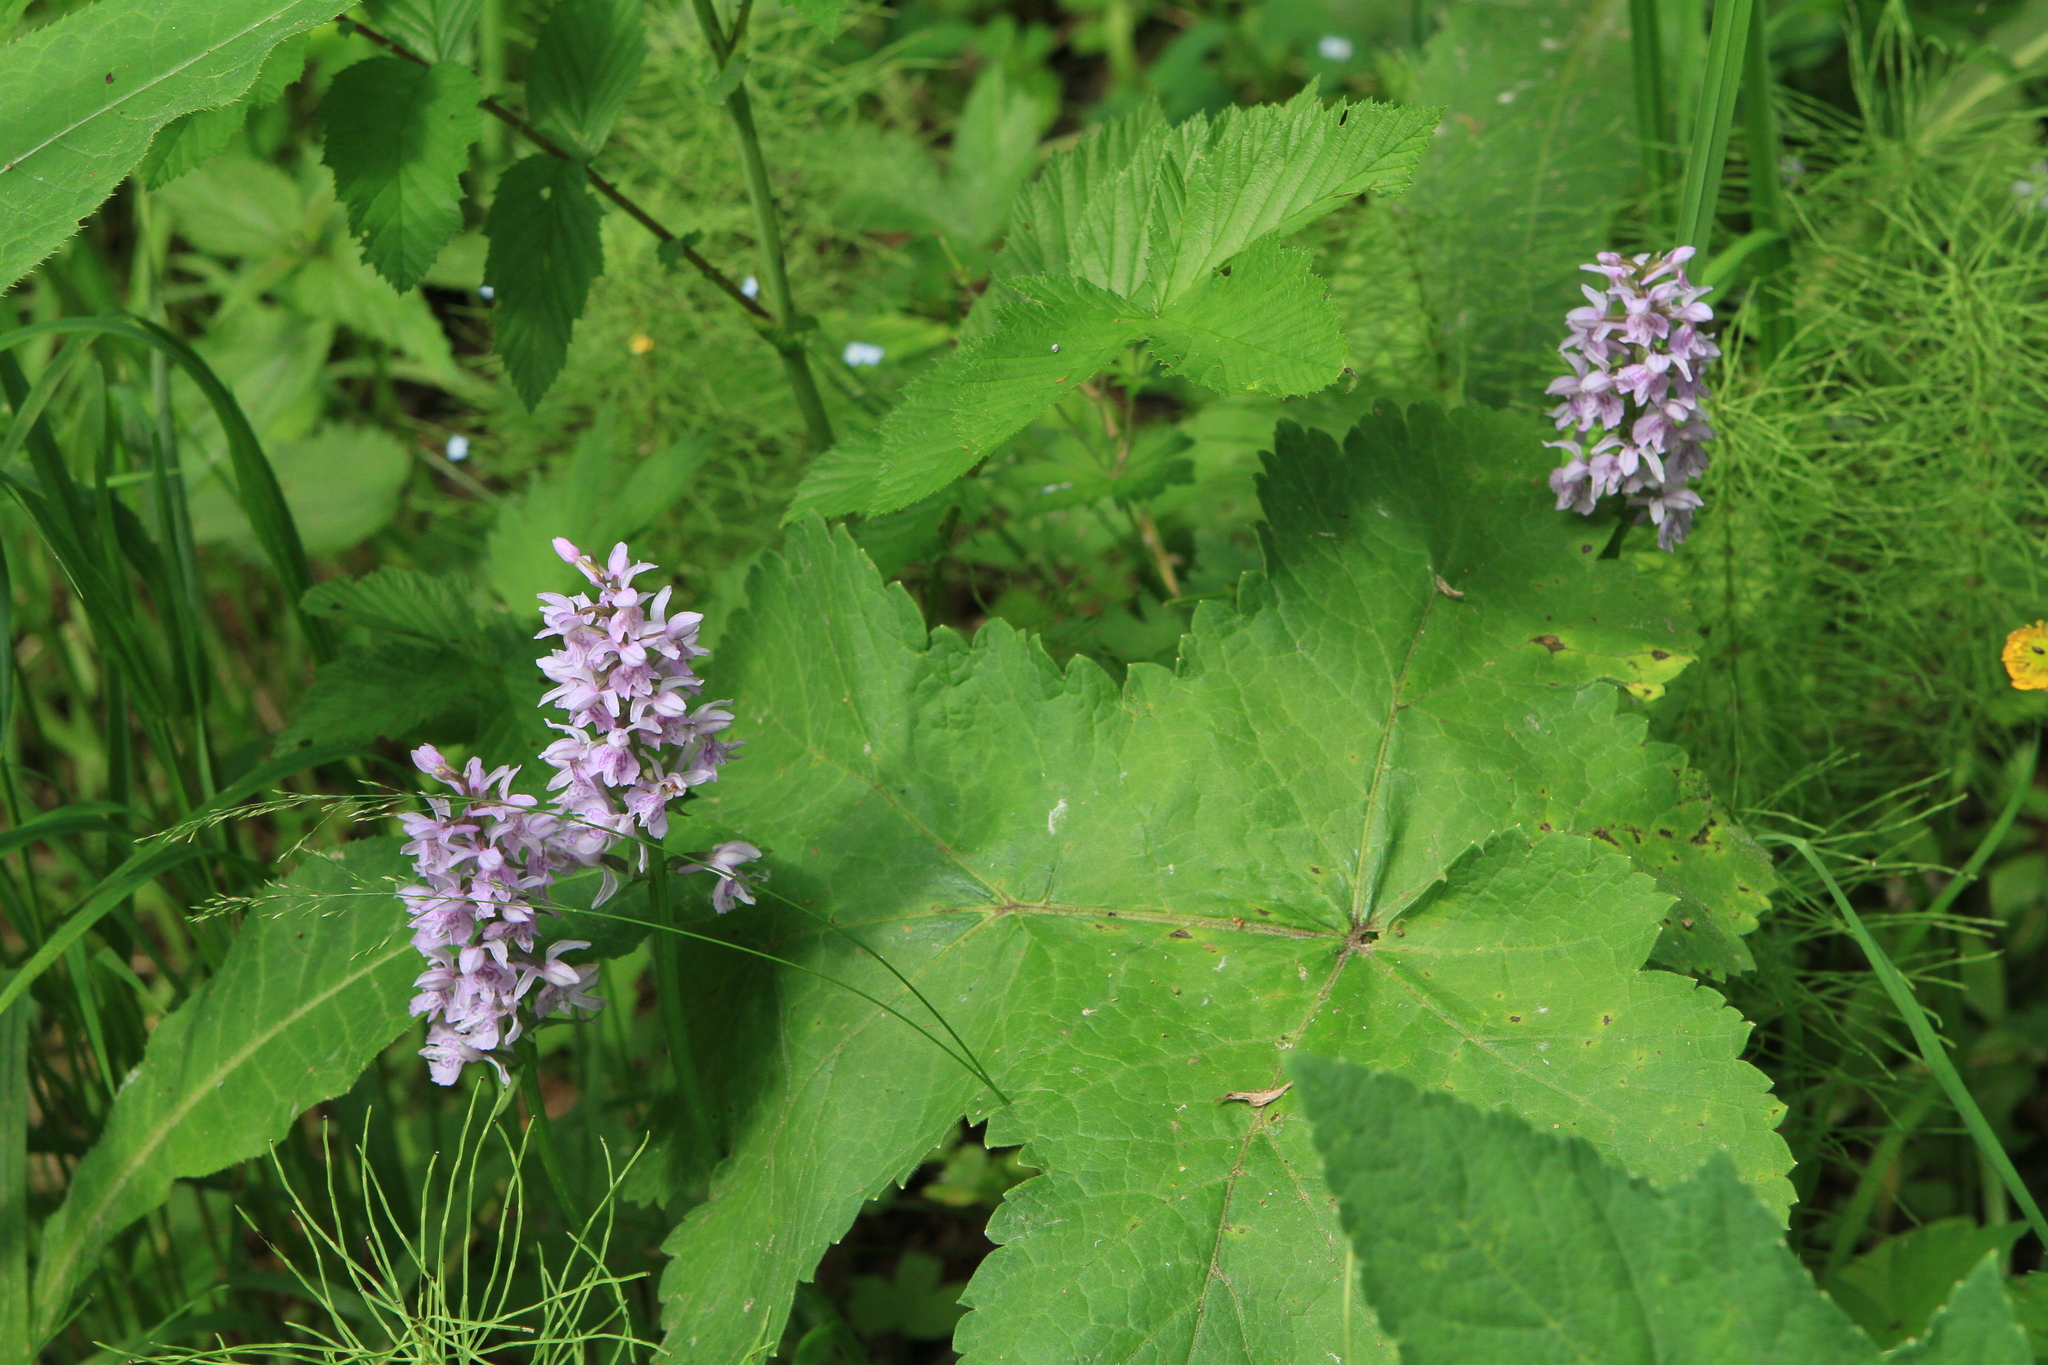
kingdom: Plantae
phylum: Tracheophyta
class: Liliopsida
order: Asparagales
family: Orchidaceae
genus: Dactylorhiza
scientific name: Dactylorhiza maculata
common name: Heath spotted-orchid
